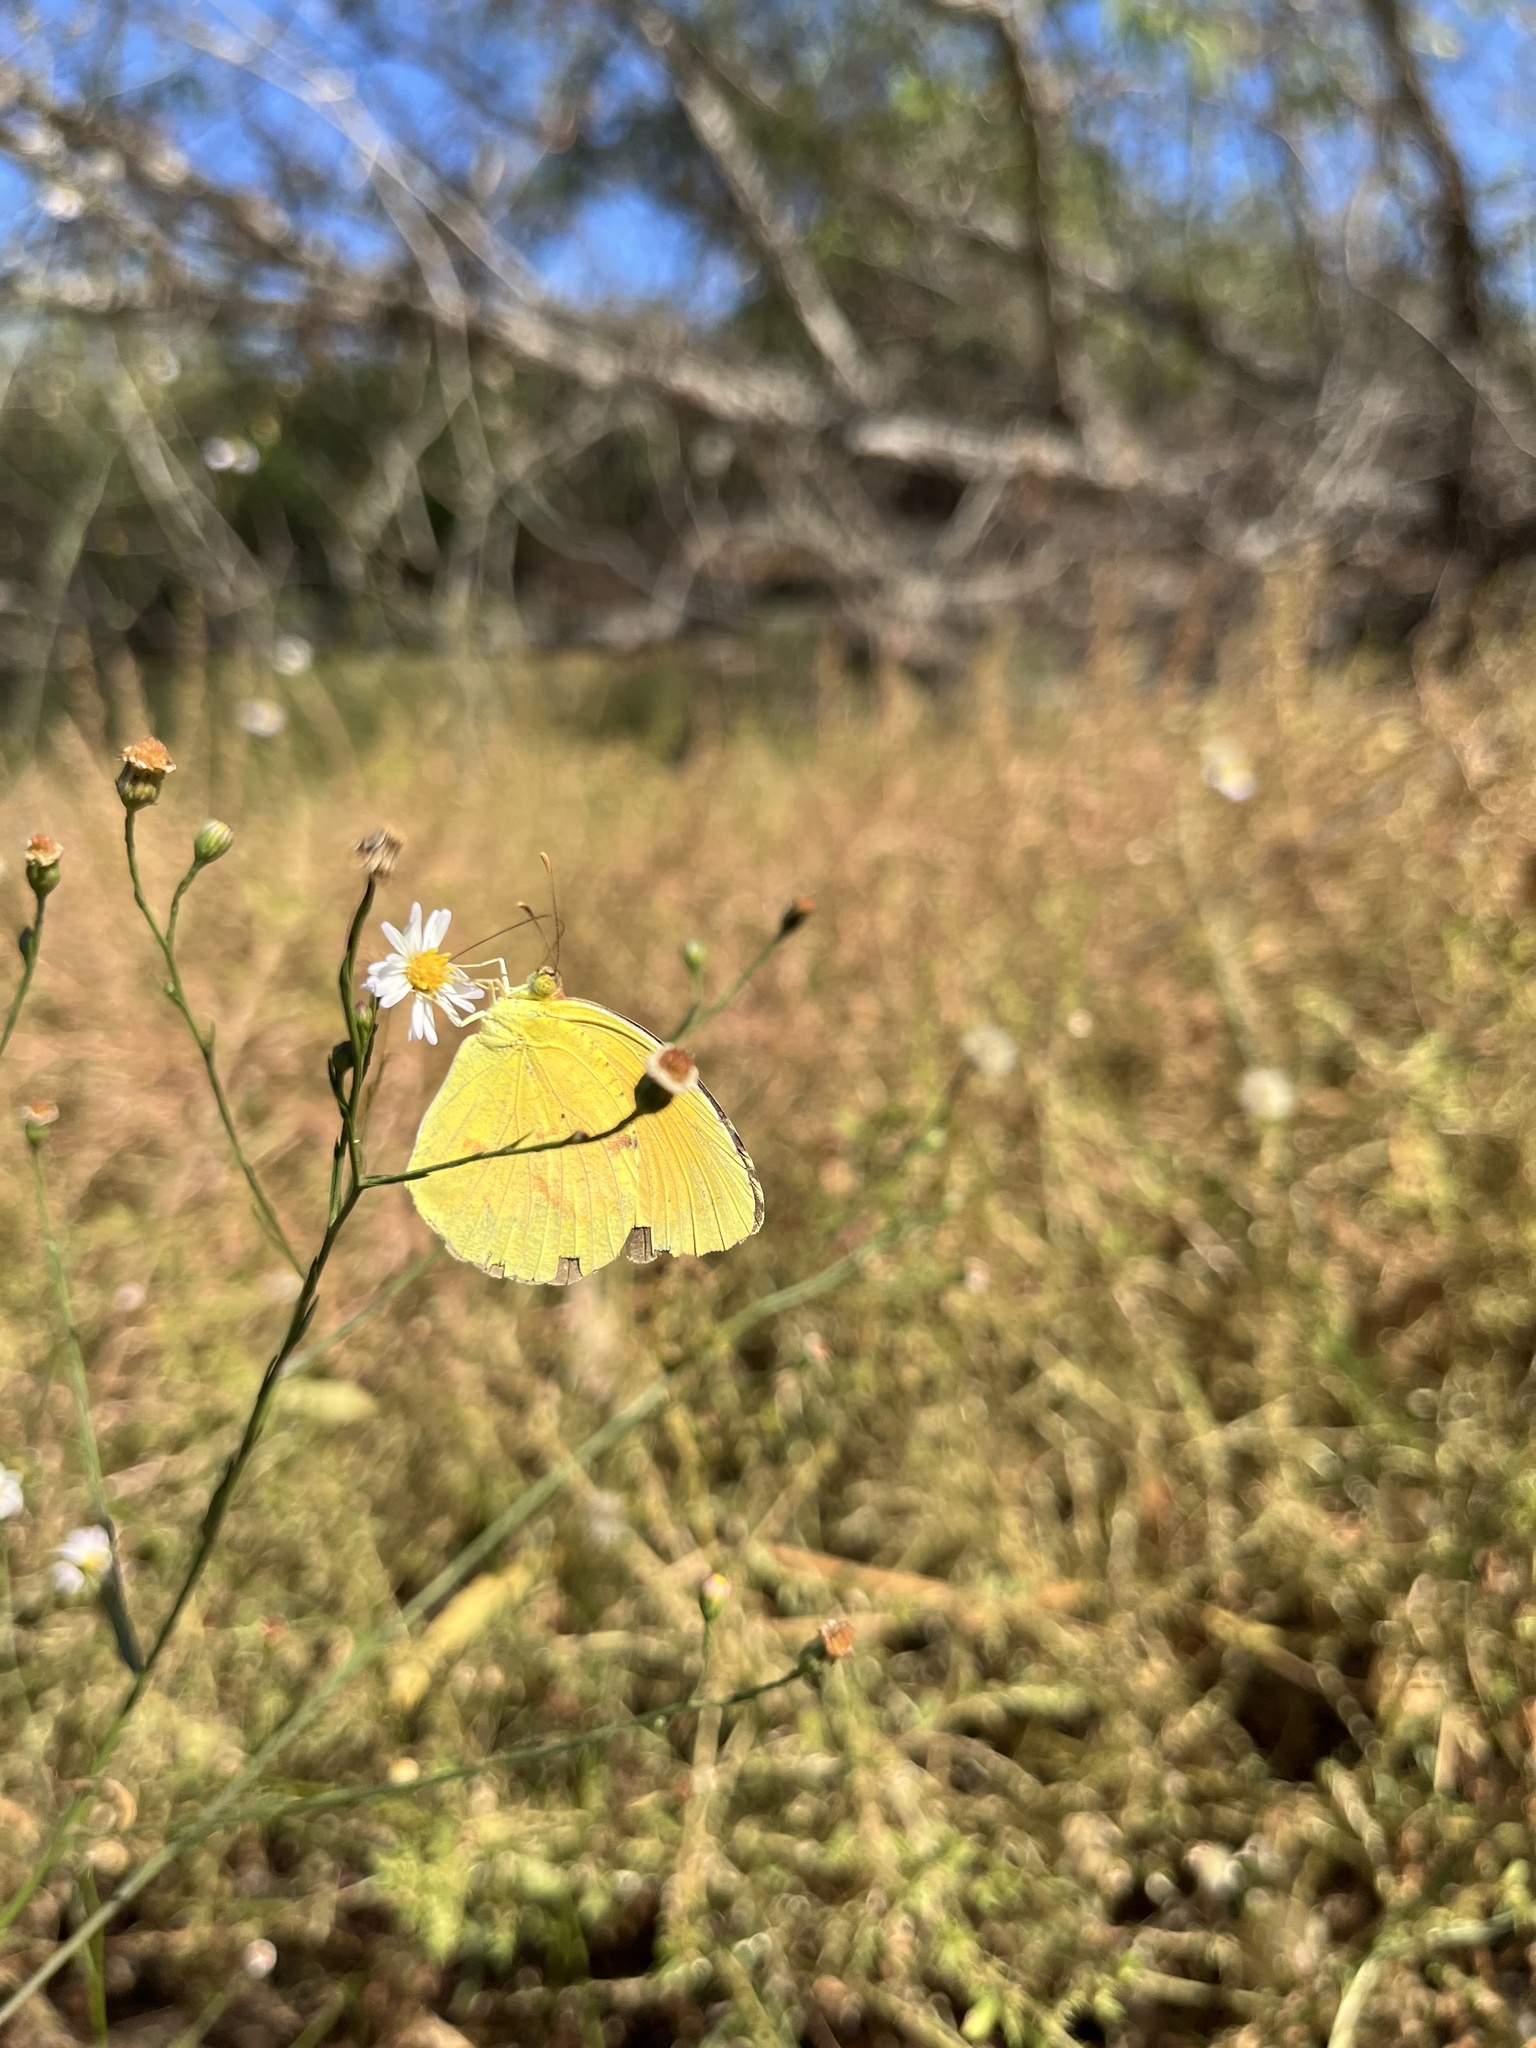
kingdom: Animalia
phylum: Arthropoda
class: Insecta
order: Lepidoptera
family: Pieridae
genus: Abaeis
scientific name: Abaeis nicippe
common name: Sleepy orange
